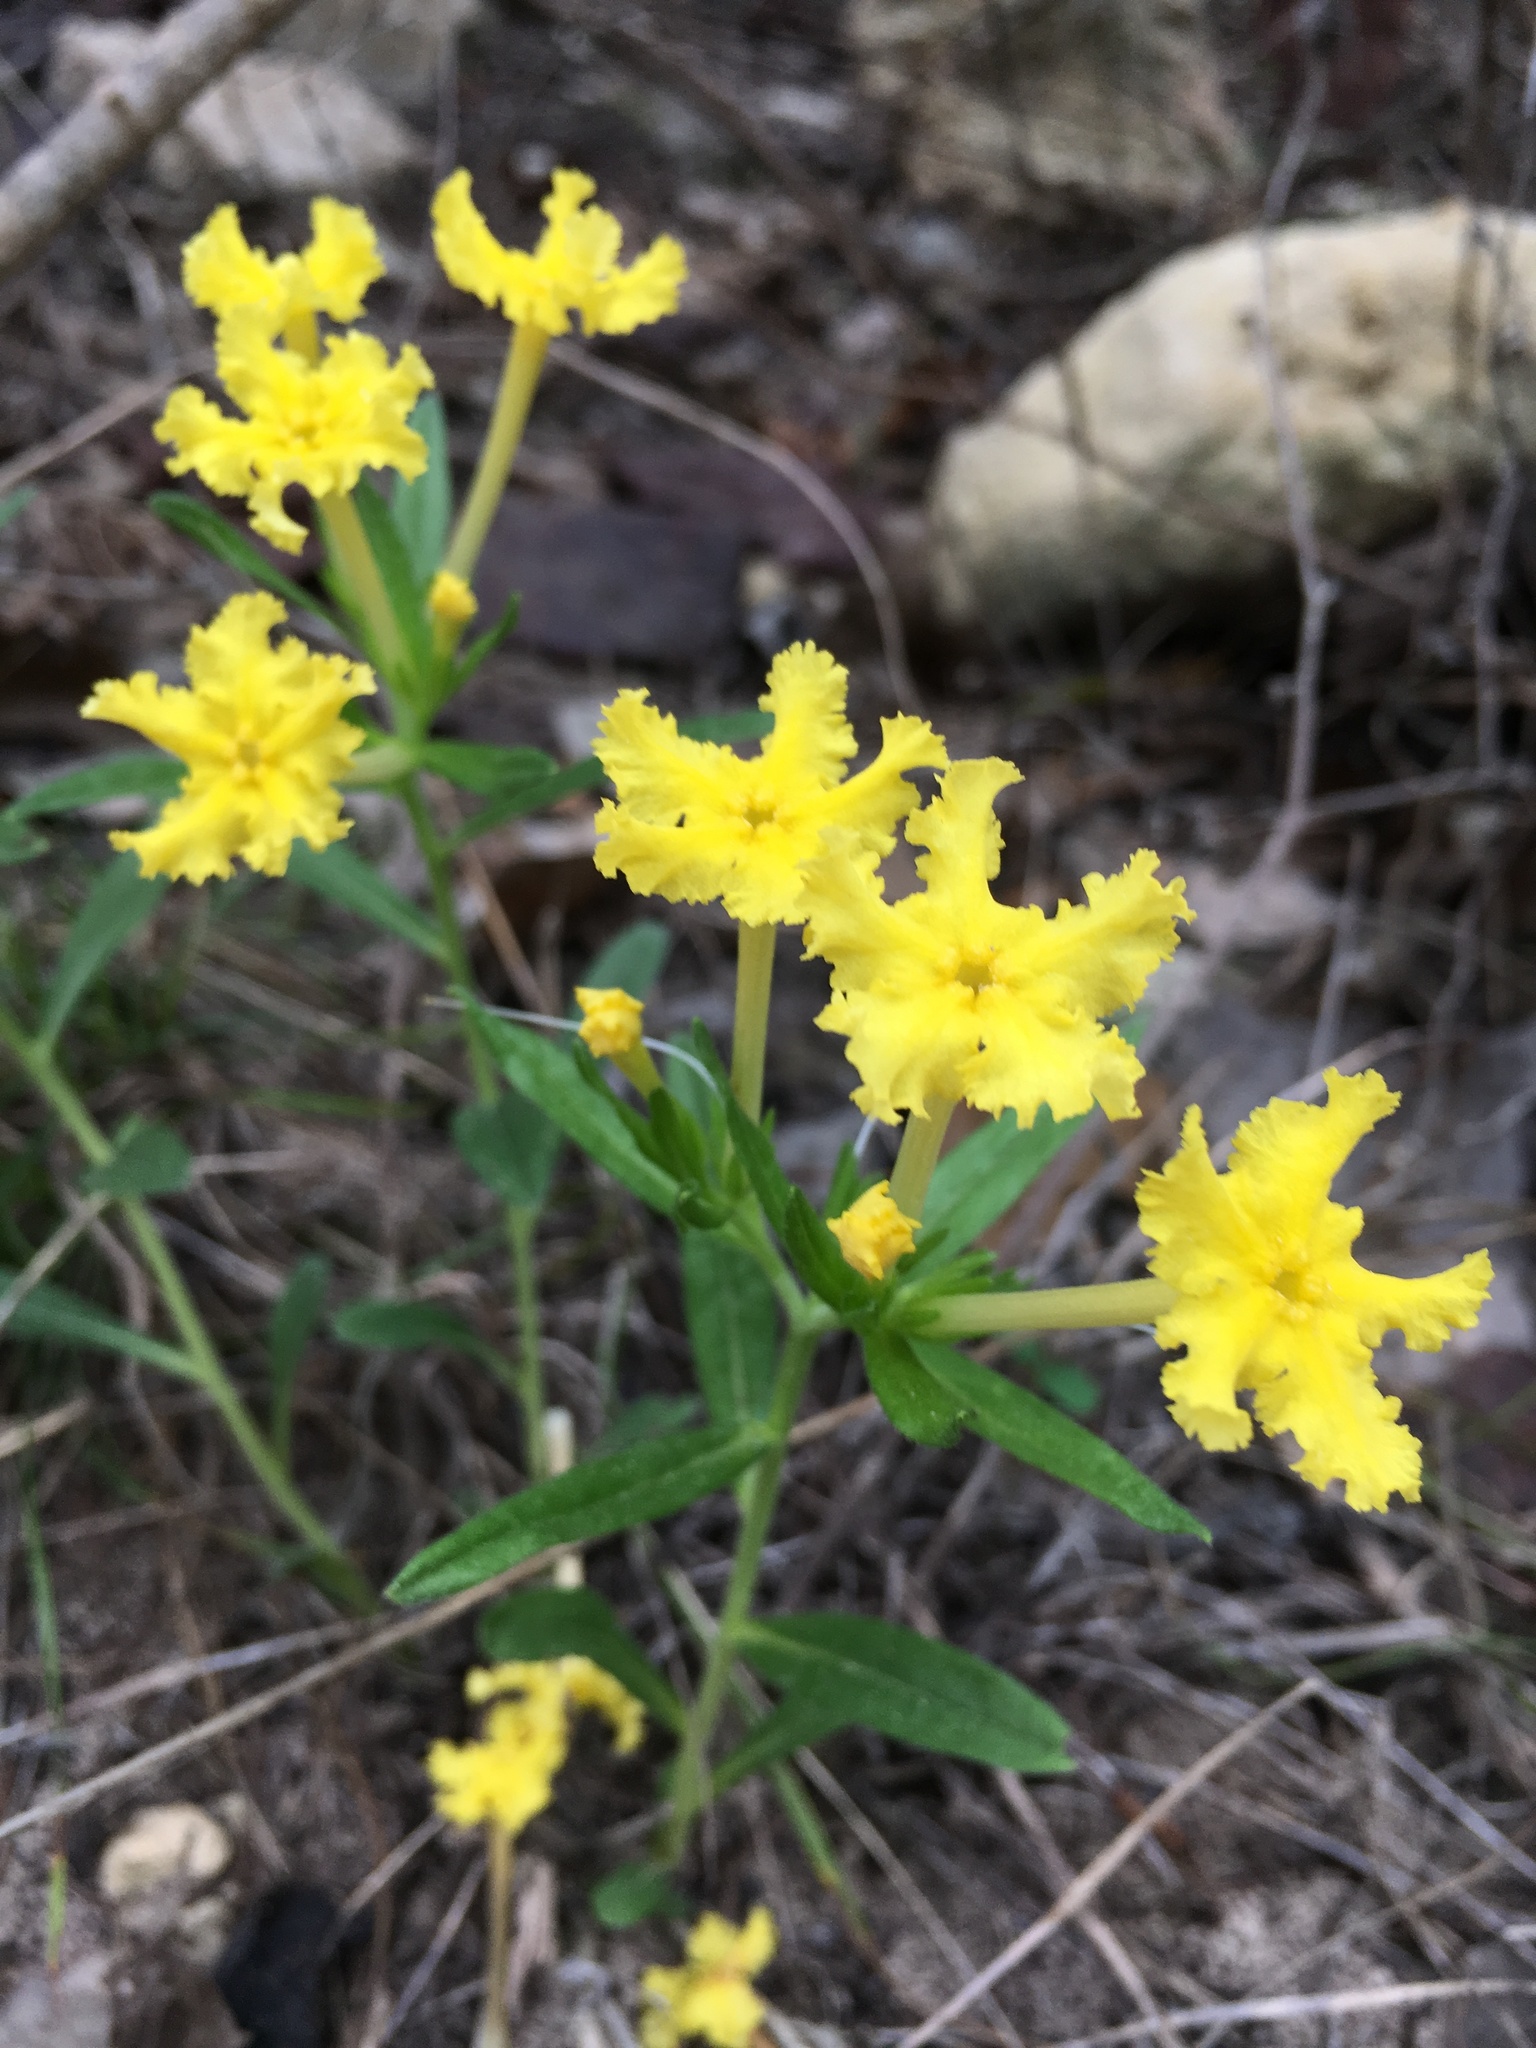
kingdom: Plantae
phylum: Tracheophyta
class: Magnoliopsida
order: Boraginales
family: Boraginaceae
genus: Lithospermum
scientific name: Lithospermum incisum
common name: Fringed gromwell
